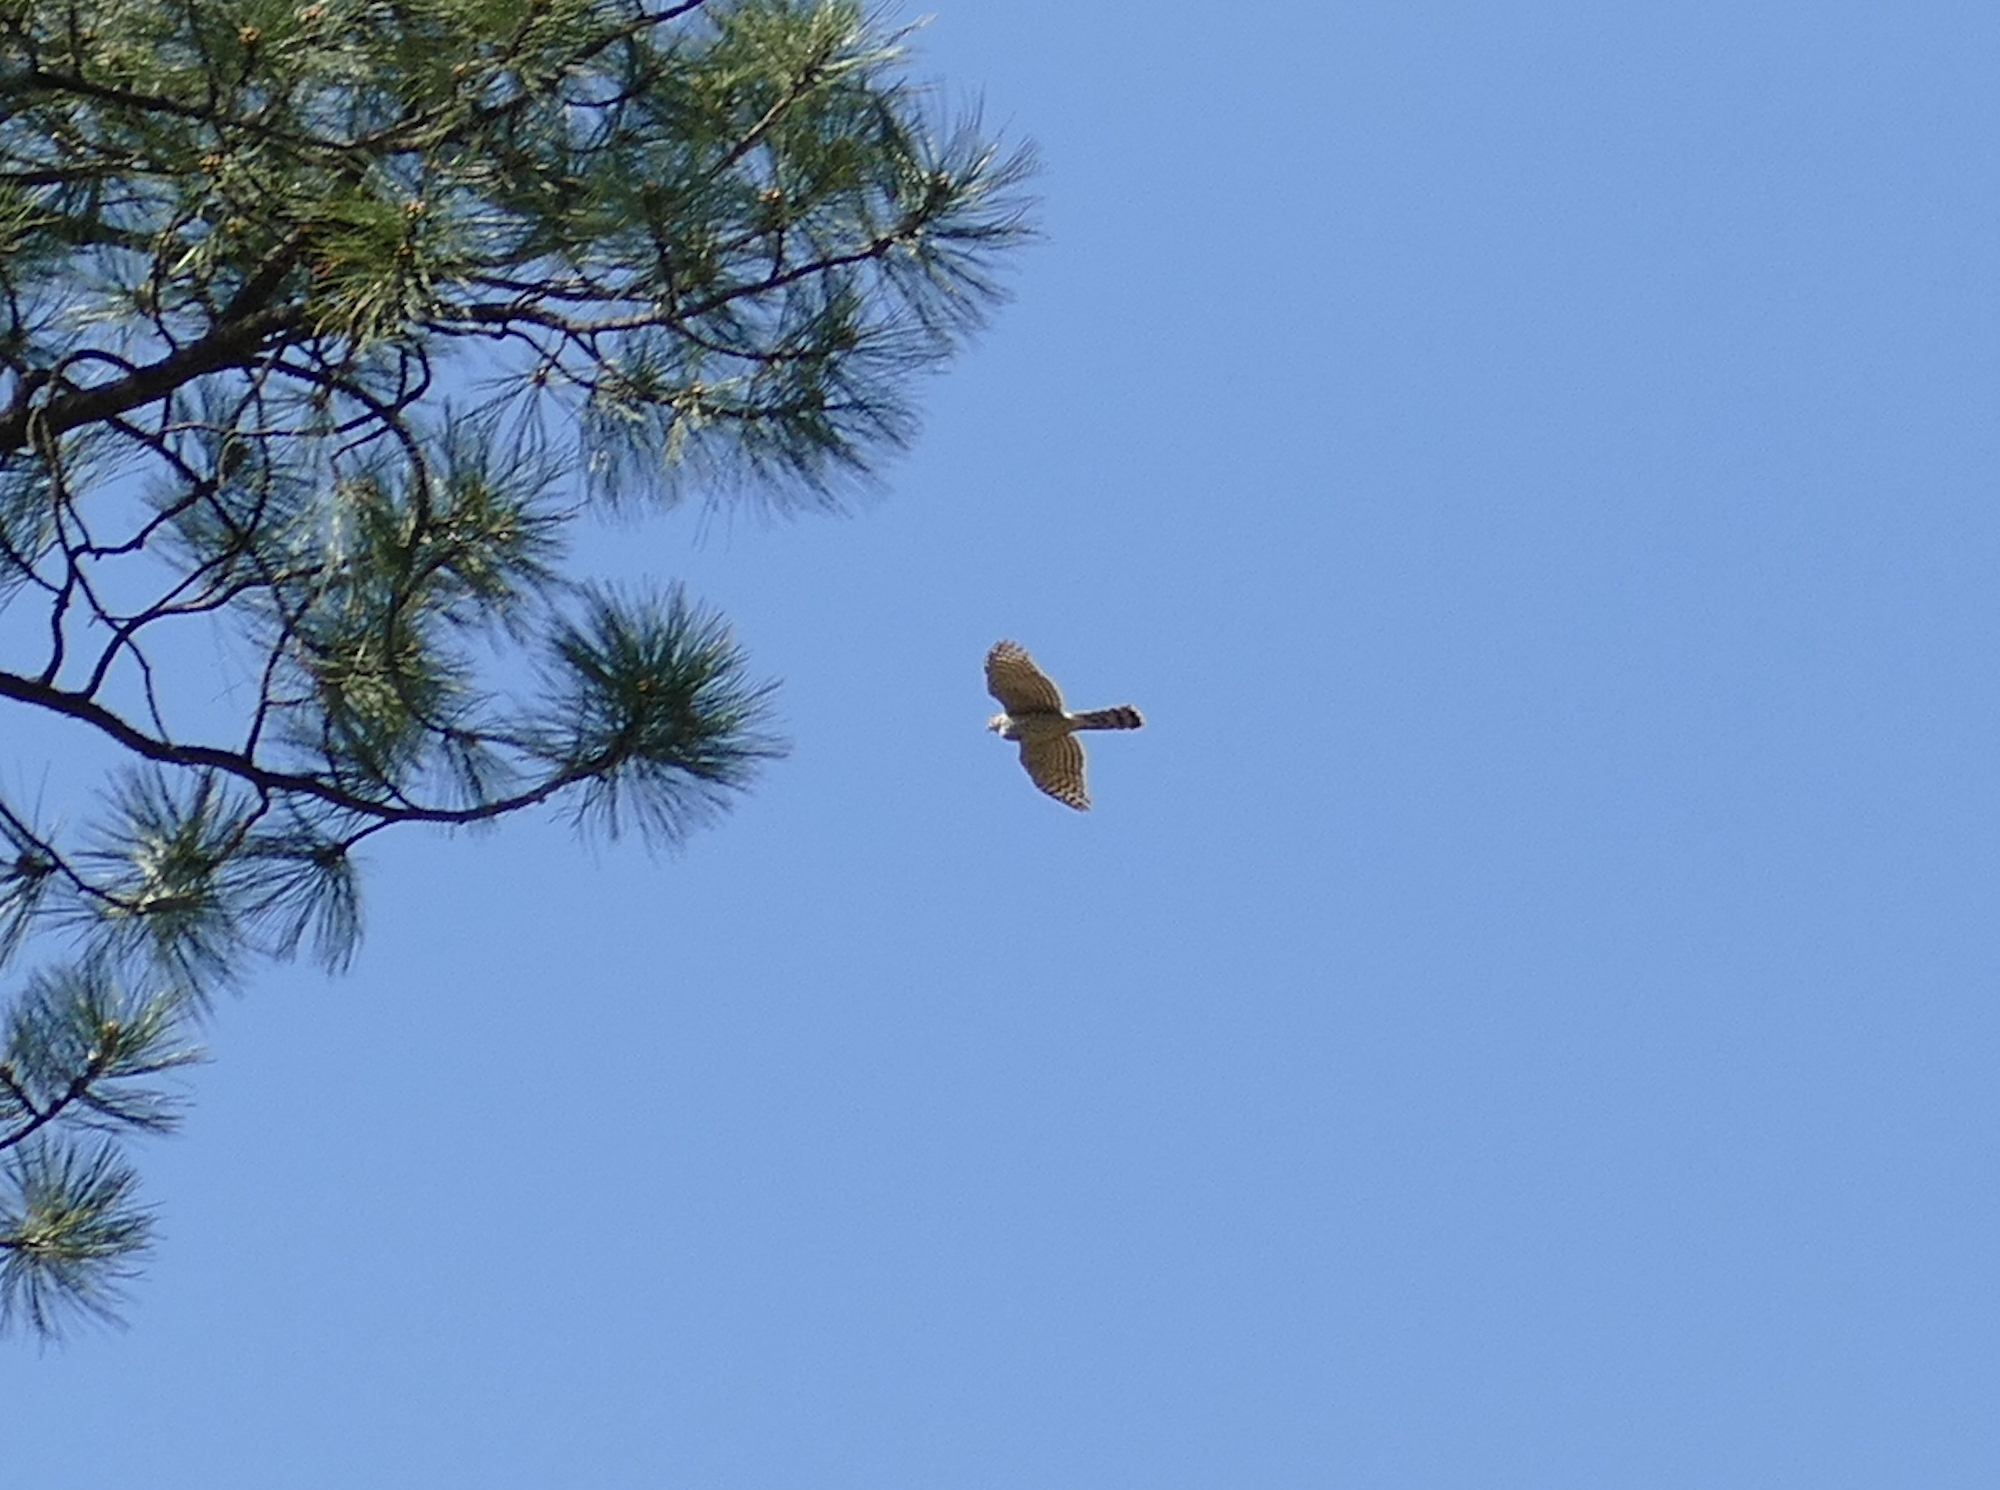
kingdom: Animalia
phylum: Chordata
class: Aves
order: Accipitriformes
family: Accipitridae
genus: Accipiter
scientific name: Accipiter cooperii
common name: Cooper's hawk
